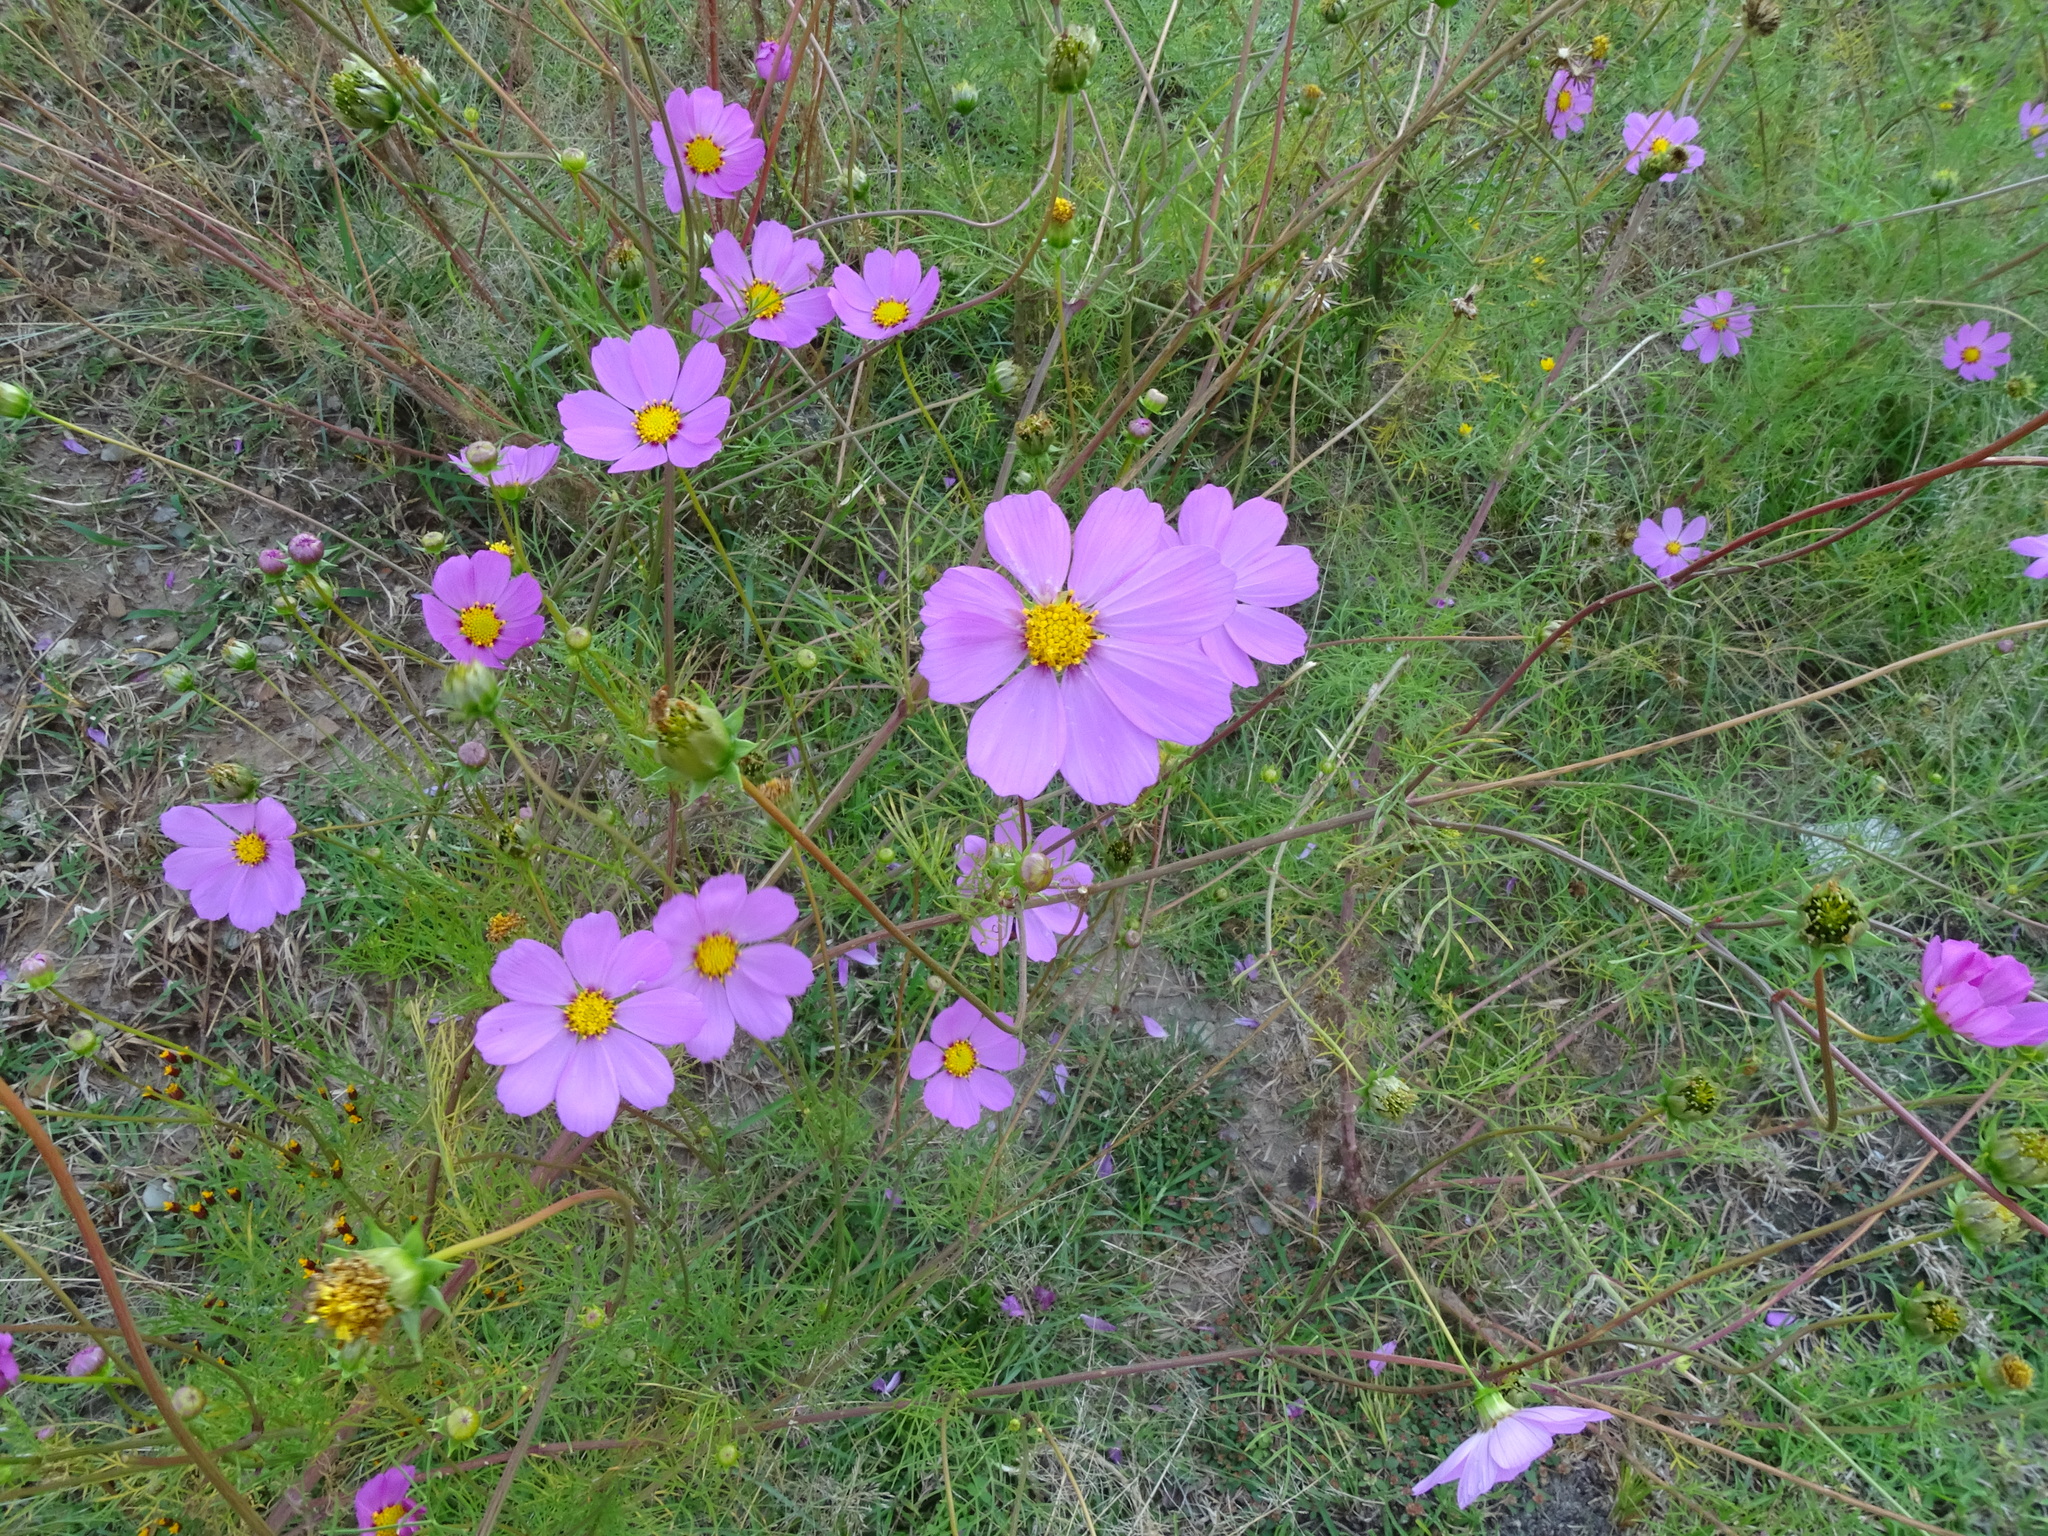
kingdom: Plantae
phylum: Tracheophyta
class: Magnoliopsida
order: Asterales
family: Asteraceae
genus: Cosmos
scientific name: Cosmos bipinnatus
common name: Garden cosmos
